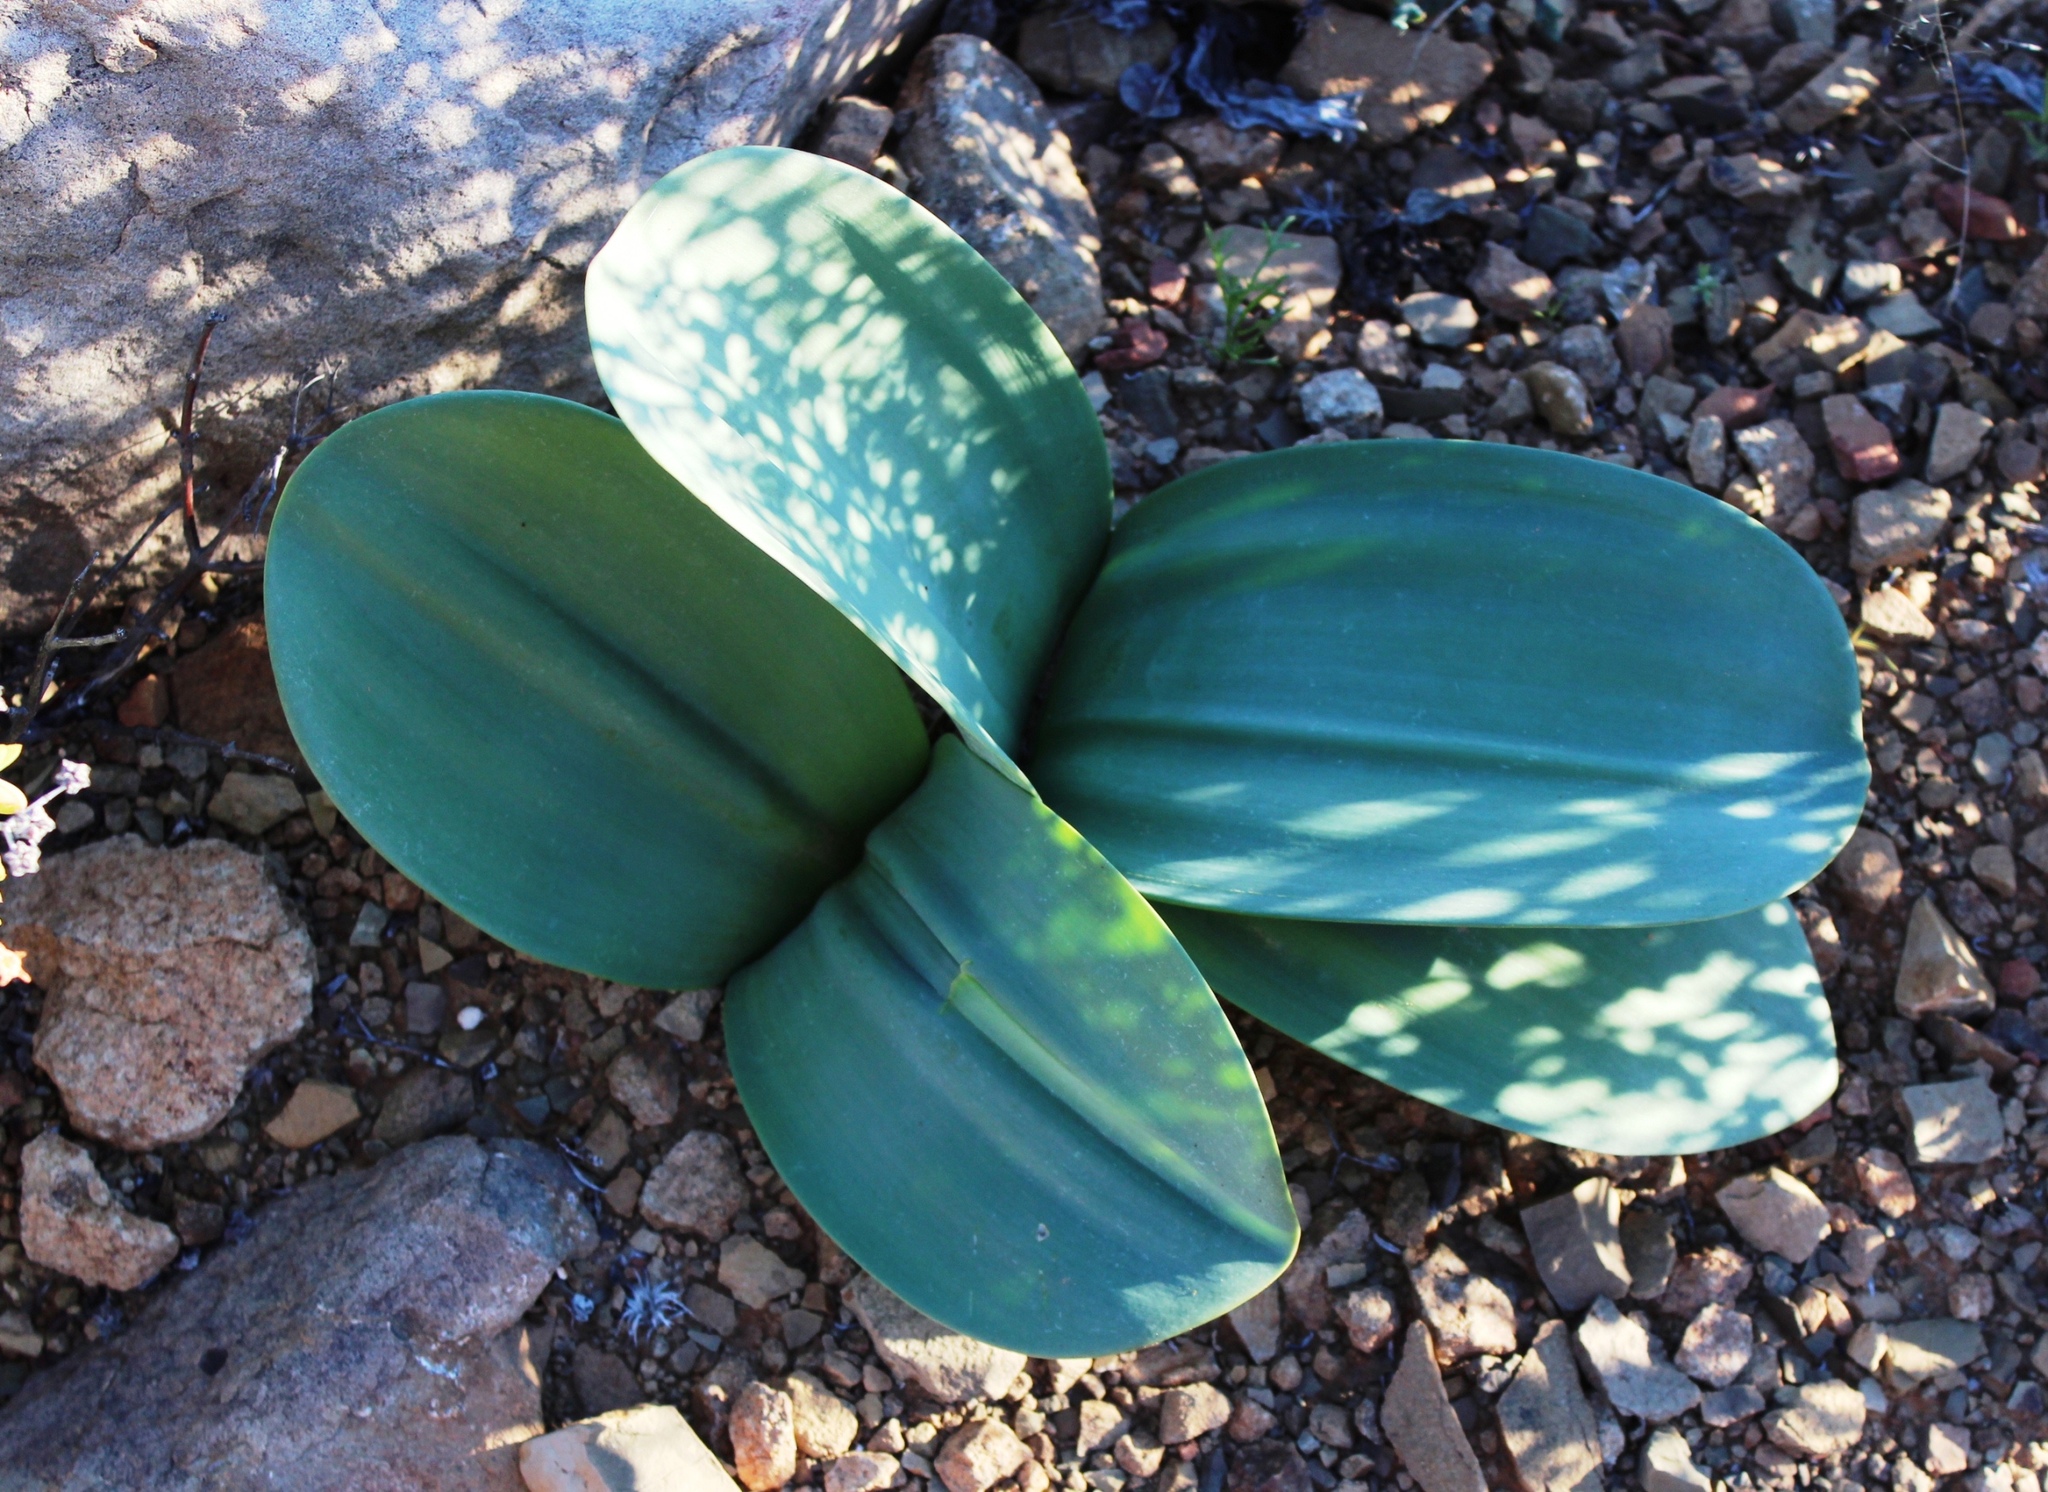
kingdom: Plantae
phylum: Tracheophyta
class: Liliopsida
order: Asparagales
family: Amaryllidaceae
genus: Haemanthus
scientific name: Haemanthus coccineus
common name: Cape-tulip
